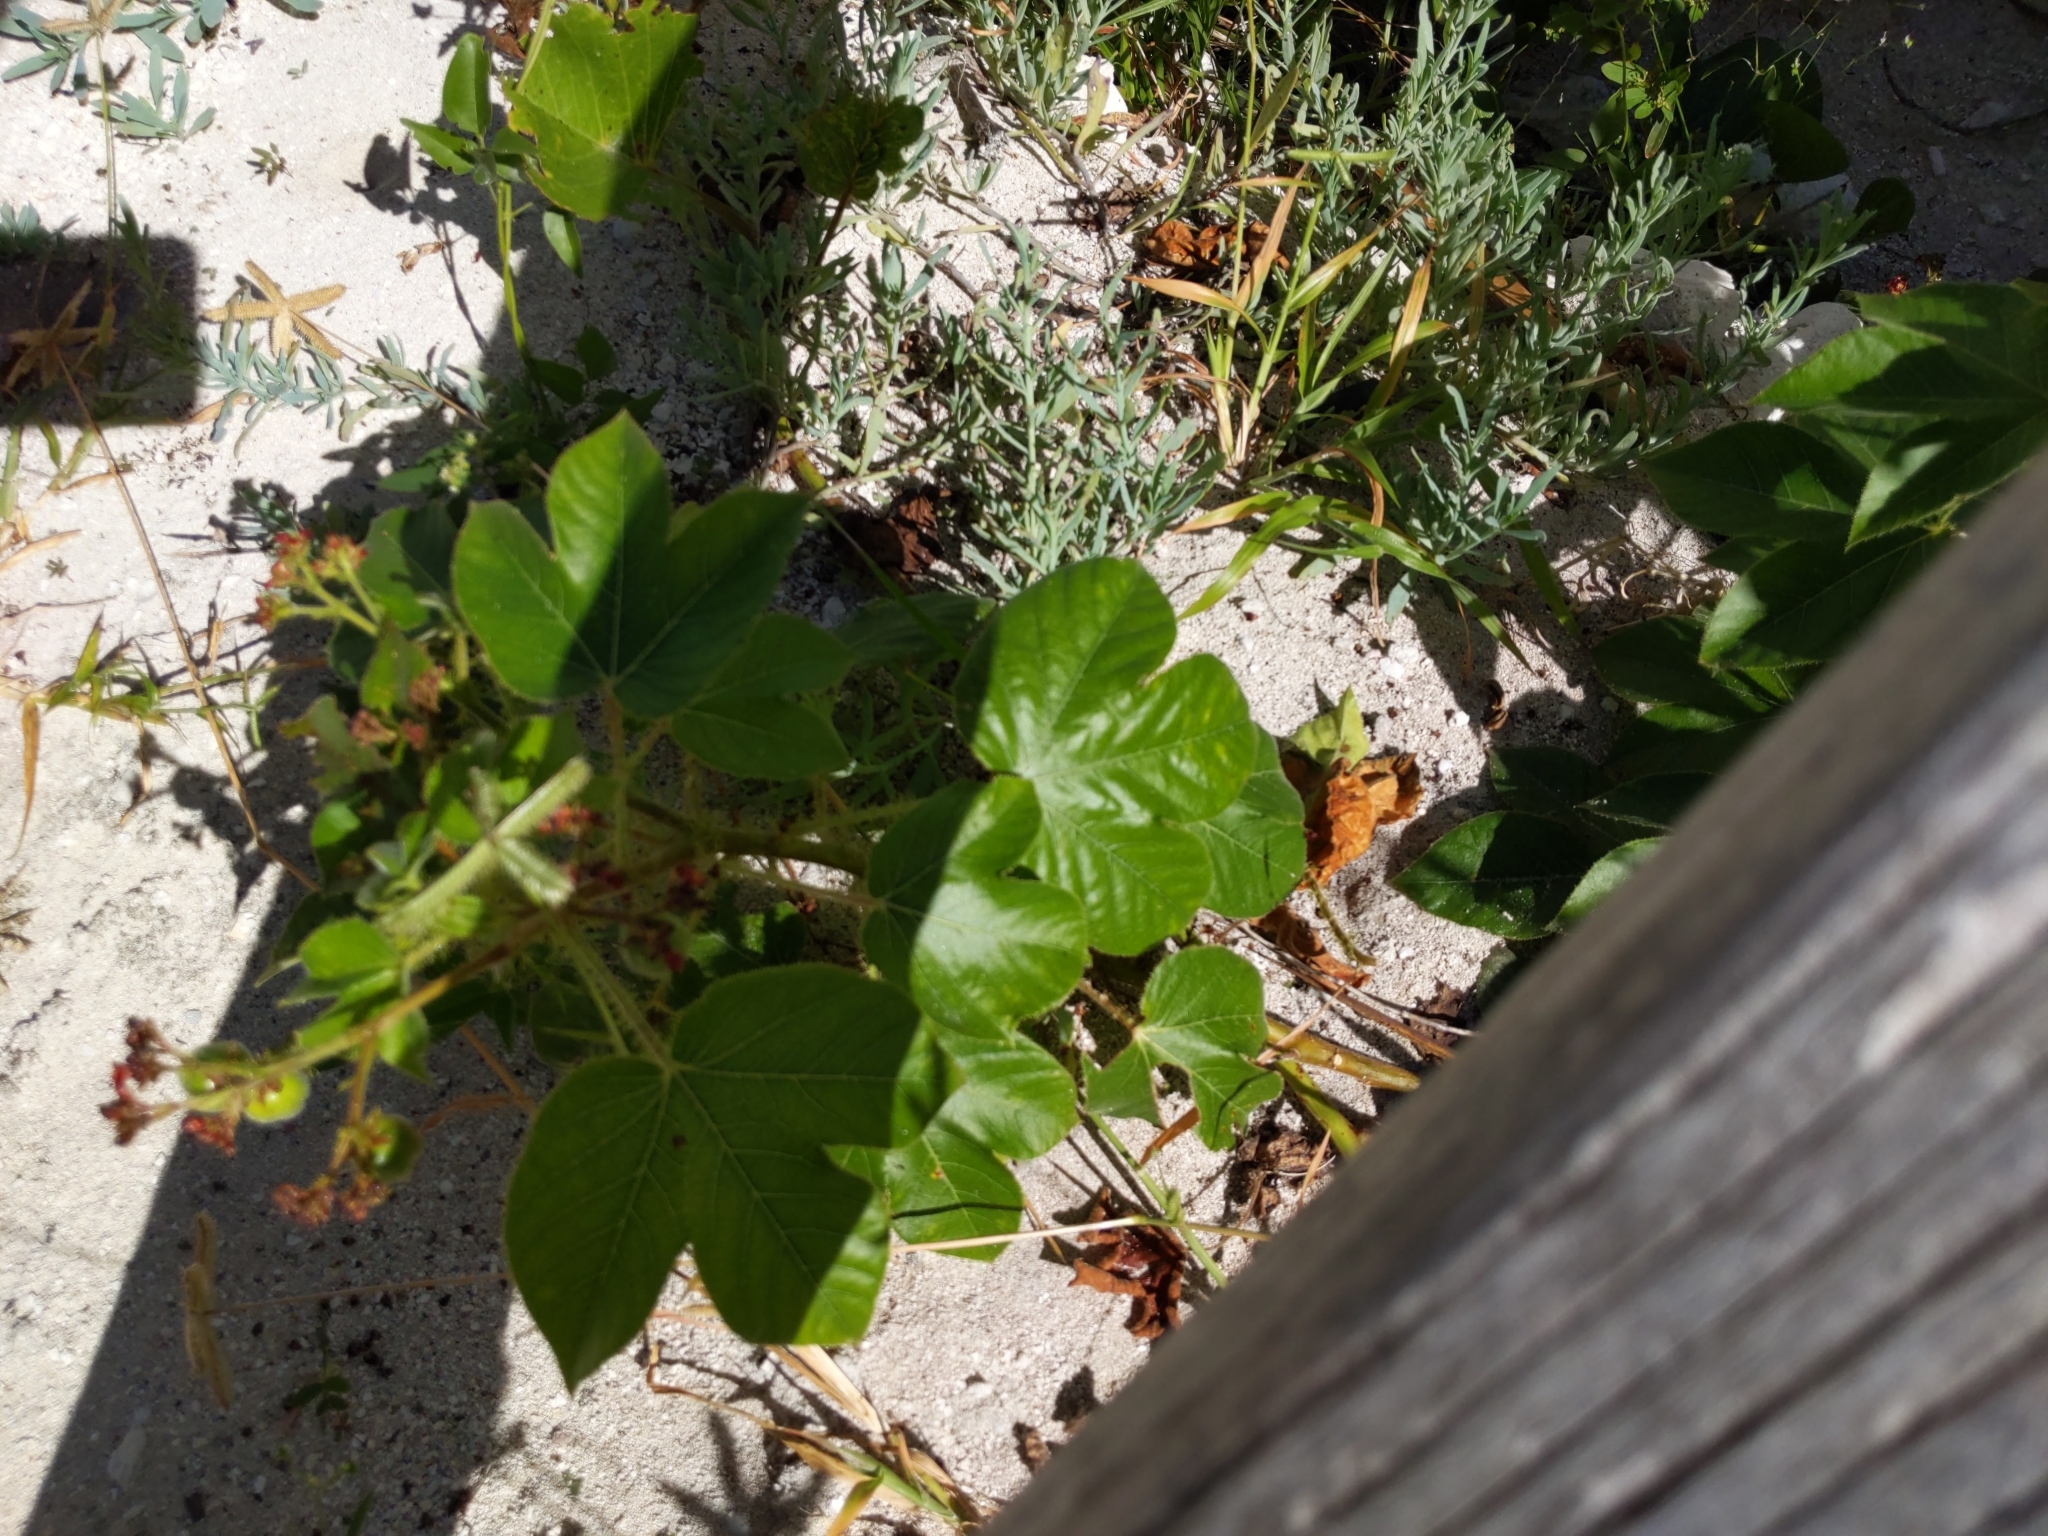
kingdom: Plantae
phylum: Tracheophyta
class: Magnoliopsida
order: Malpighiales
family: Euphorbiaceae
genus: Jatropha
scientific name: Jatropha gossypiifolia
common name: Bellyache bush
